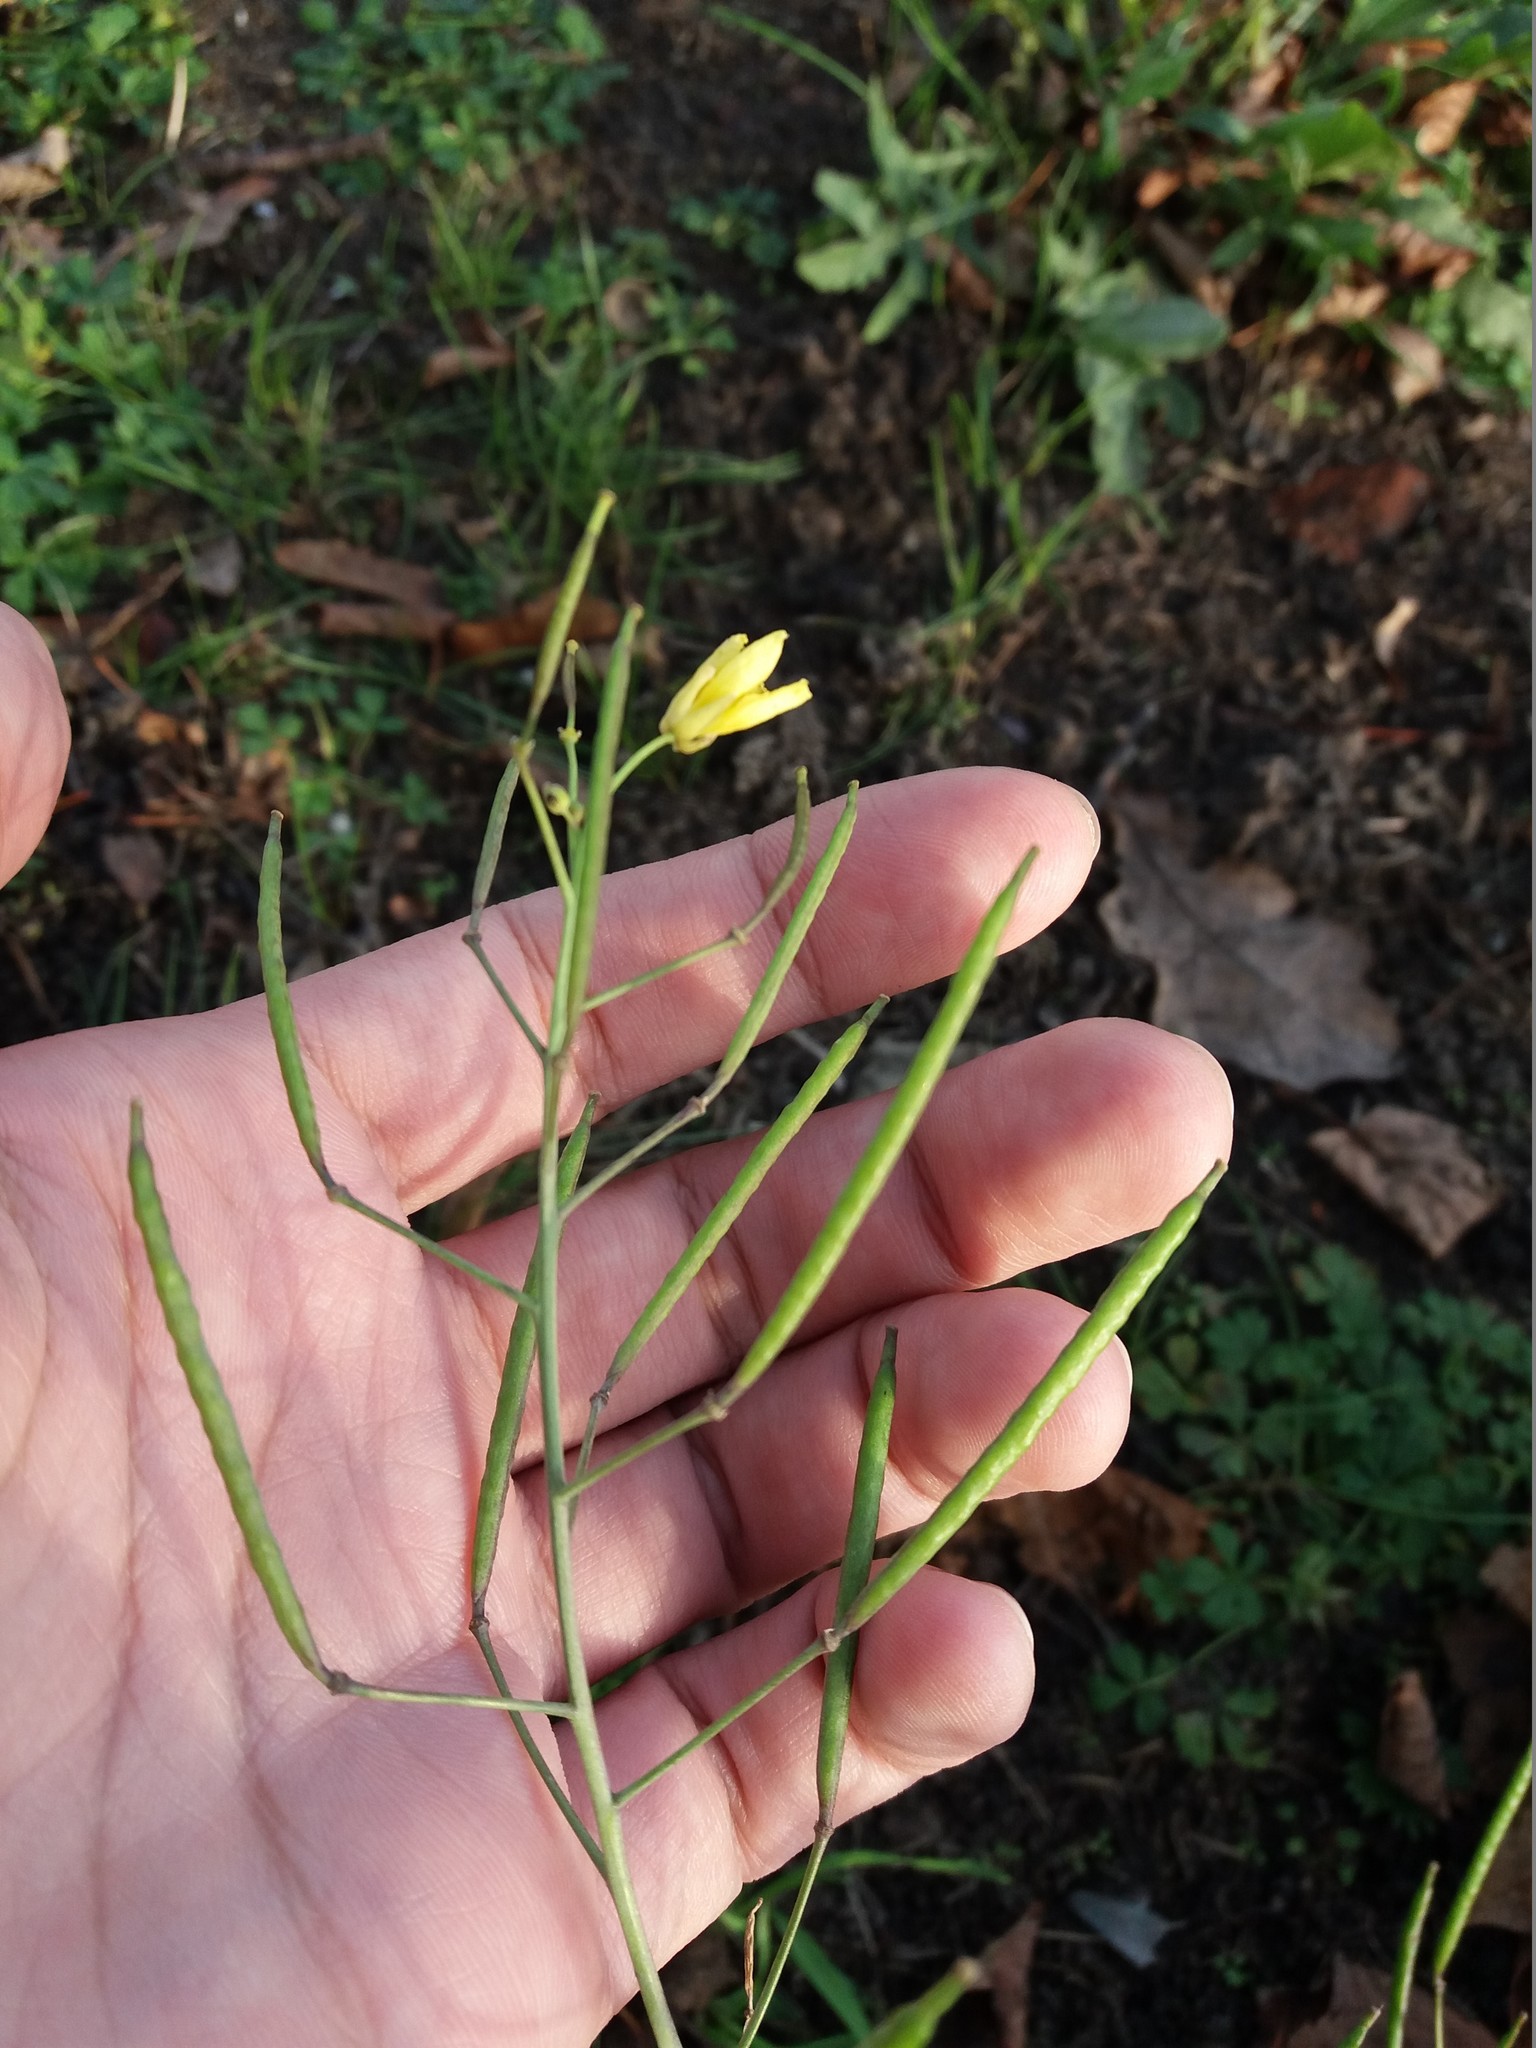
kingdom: Plantae
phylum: Tracheophyta
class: Magnoliopsida
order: Brassicales
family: Brassicaceae
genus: Diplotaxis
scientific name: Diplotaxis tenuifolia
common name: Perennial wall-rocket
